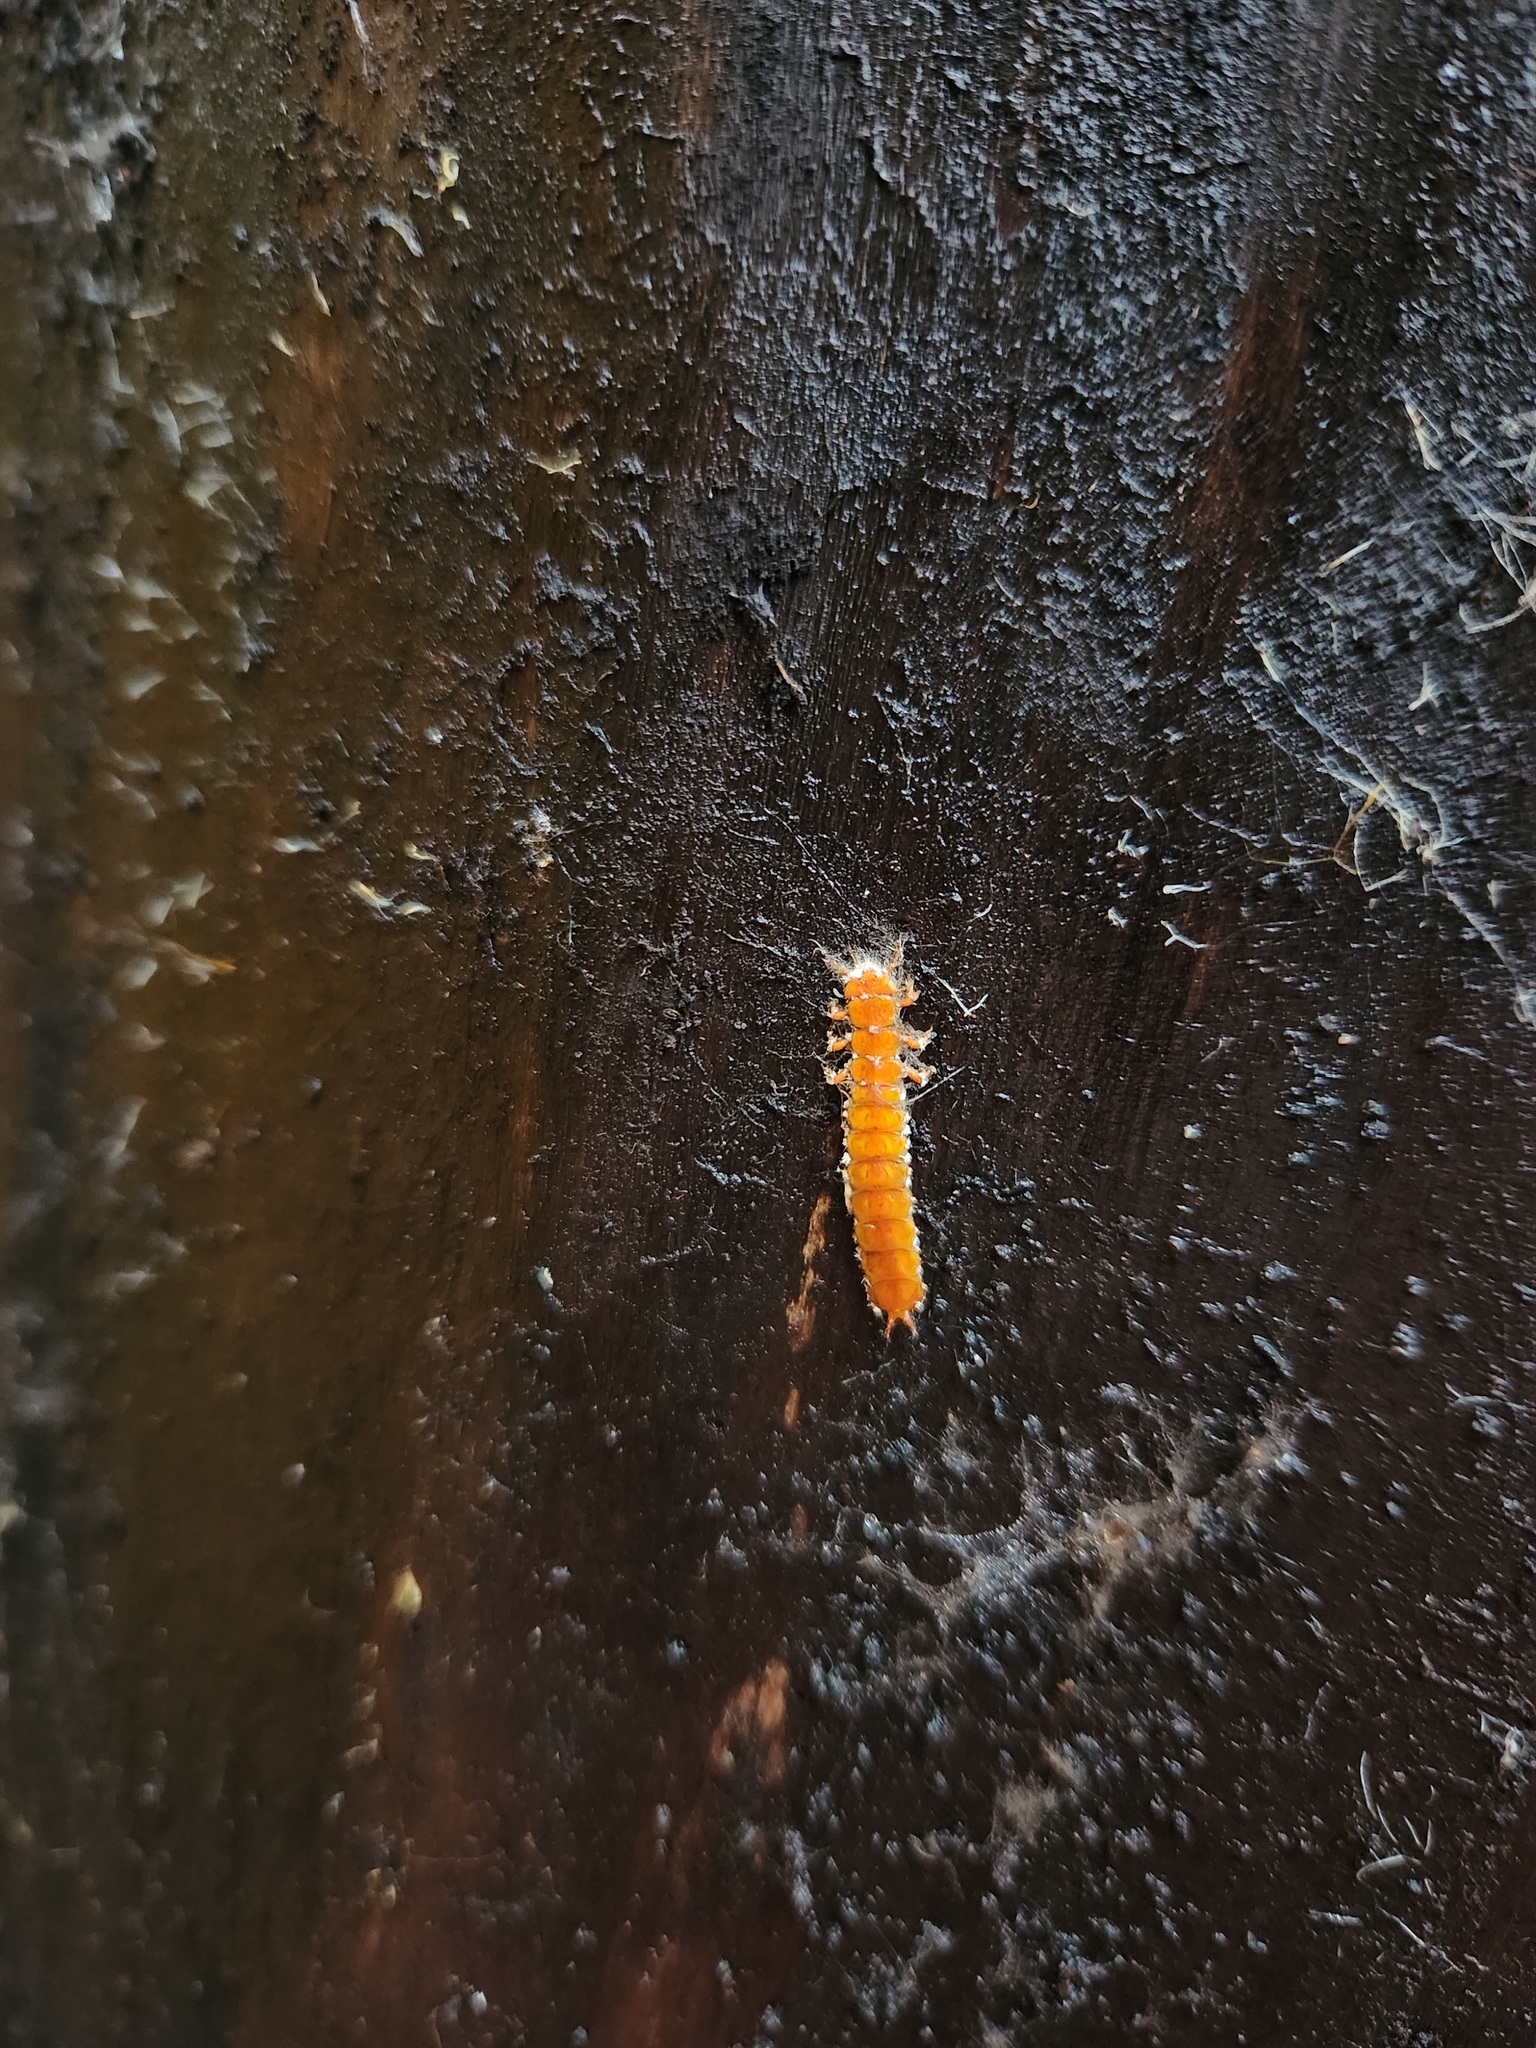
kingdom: Animalia
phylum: Arthropoda
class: Insecta
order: Coleoptera
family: Cucujidae
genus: Cucujus
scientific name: Cucujus clavipes
